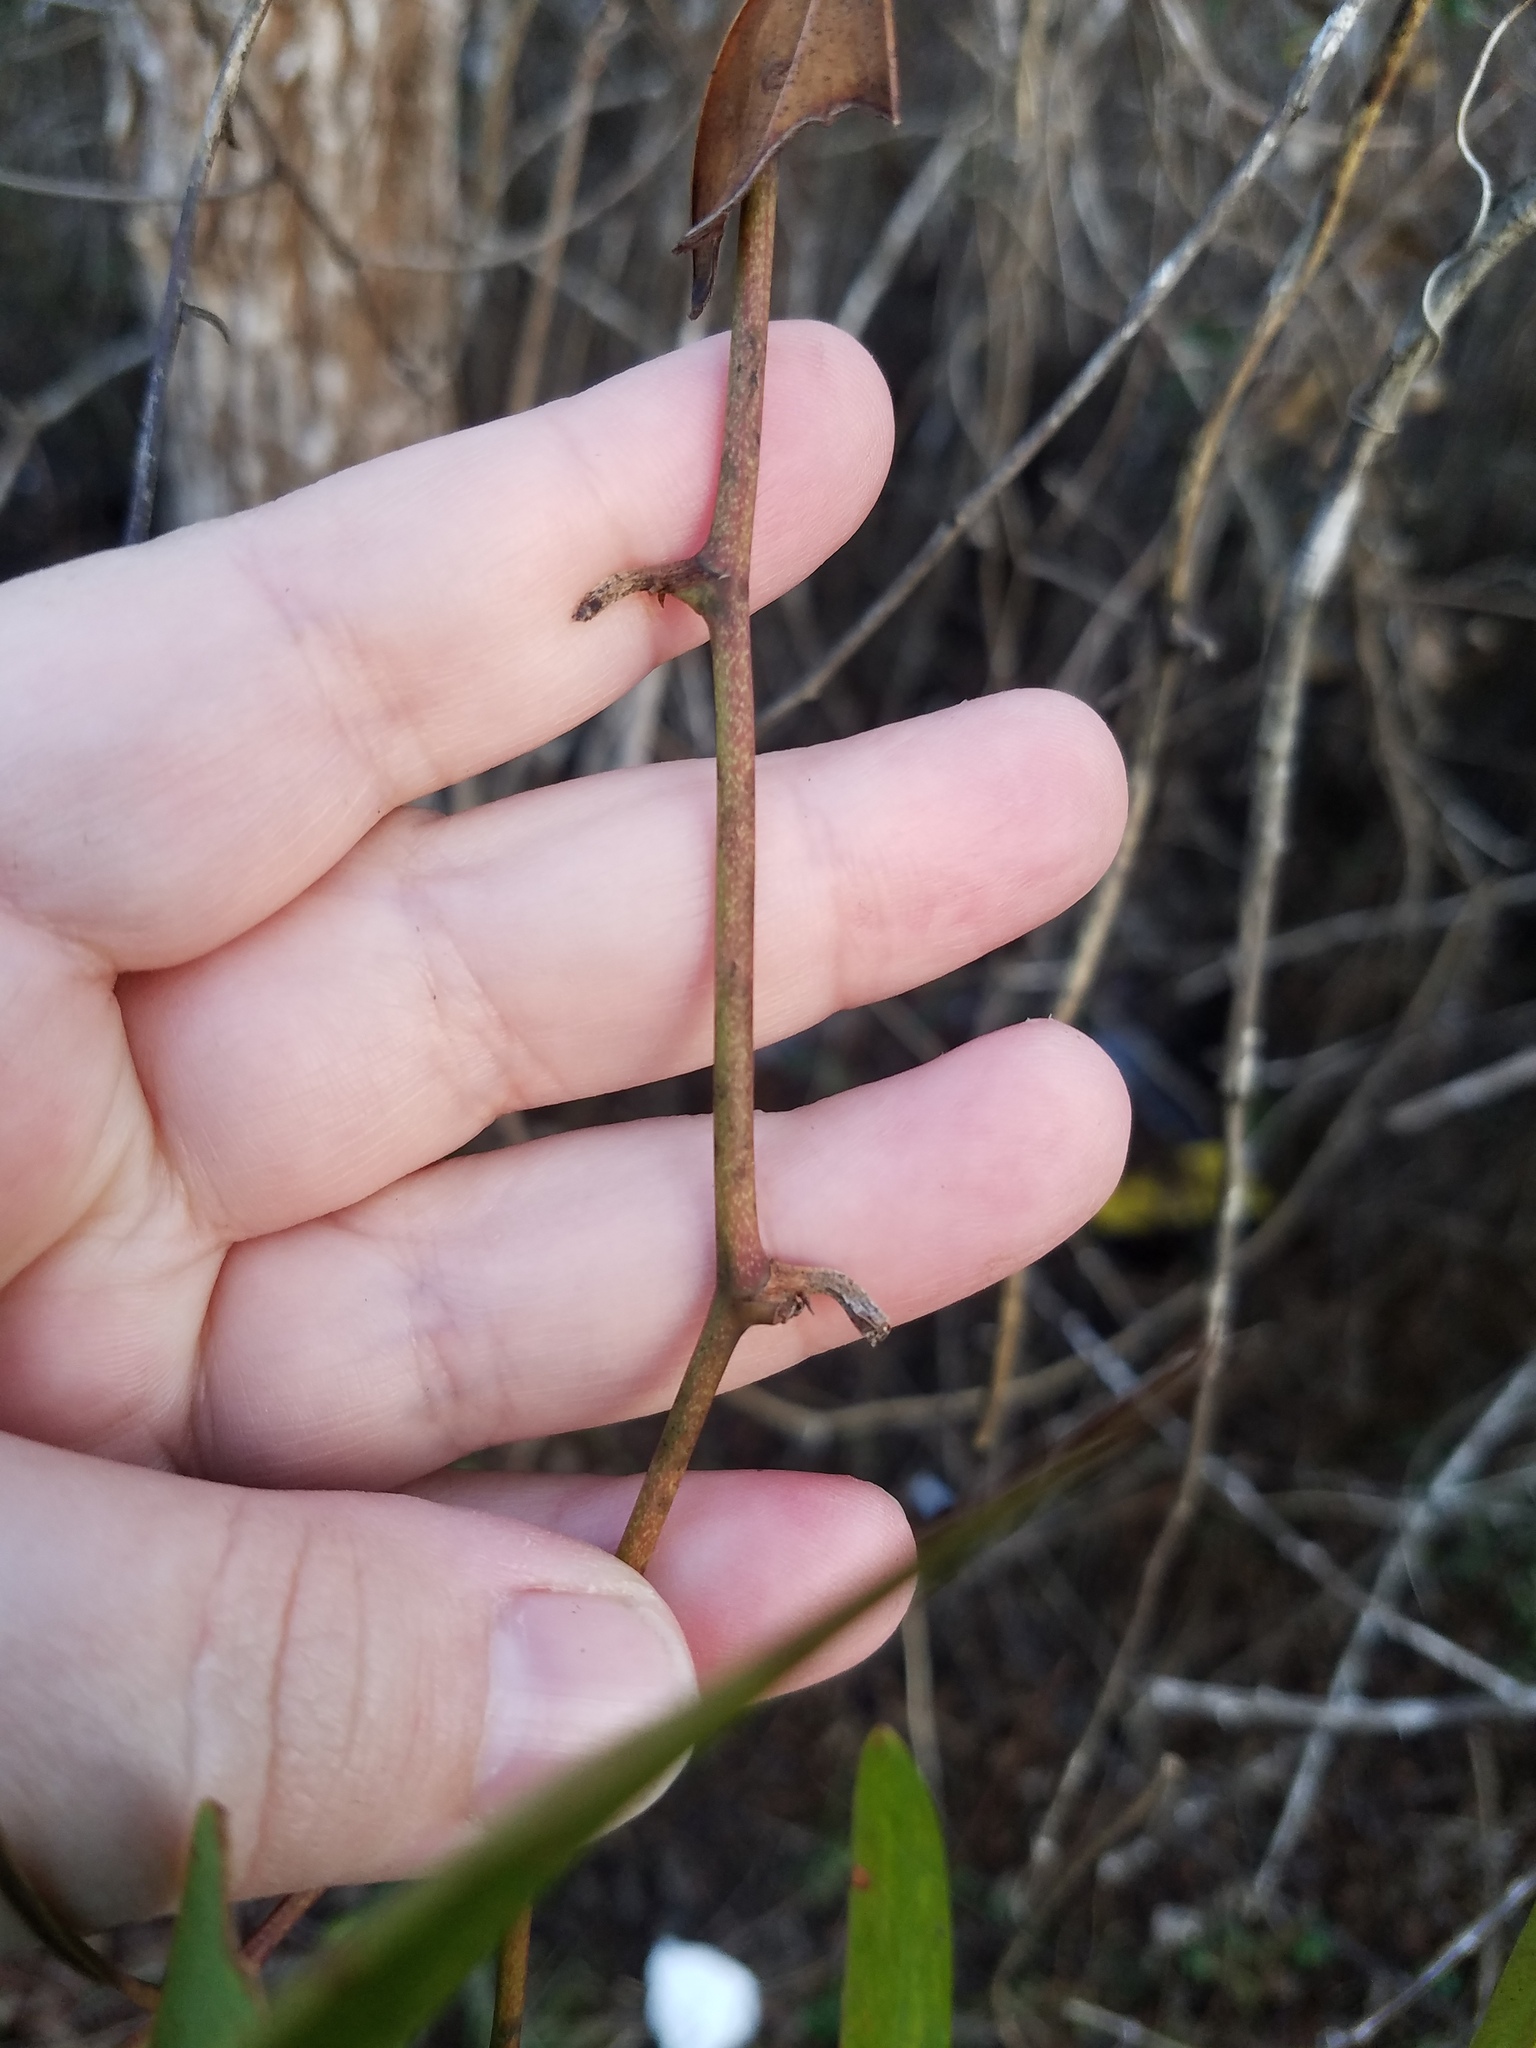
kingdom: Plantae
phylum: Tracheophyta
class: Liliopsida
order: Liliales
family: Smilacaceae
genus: Smilax
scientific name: Smilax laurifolia
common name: Bamboovine
